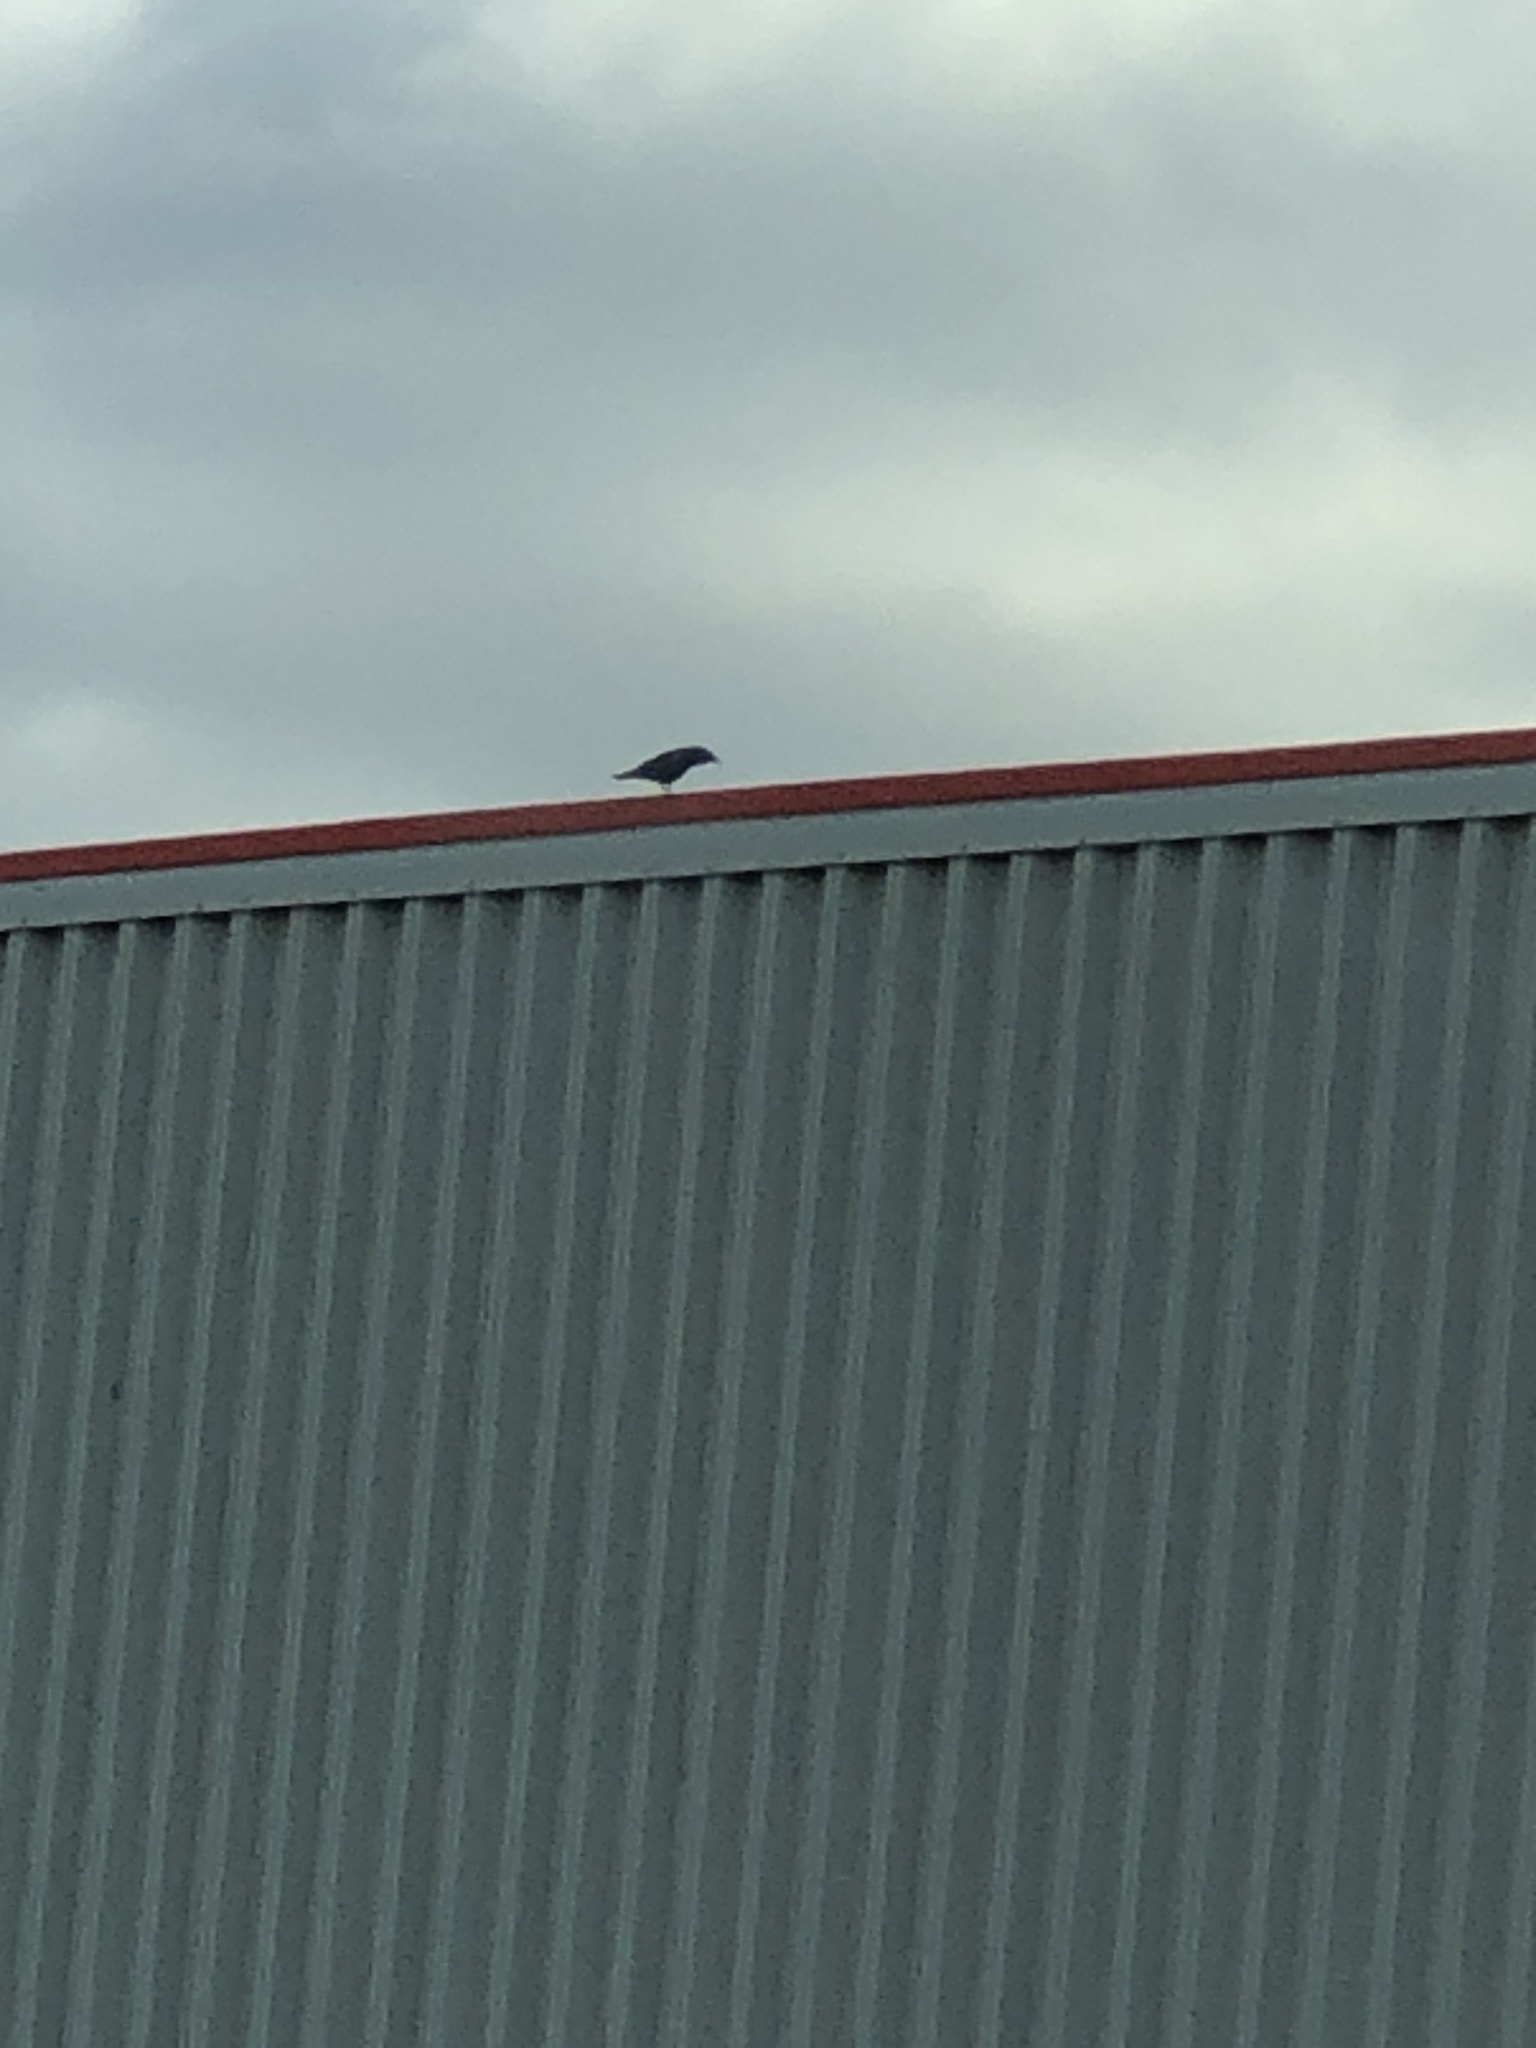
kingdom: Animalia
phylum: Chordata
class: Aves
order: Passeriformes
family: Corvidae
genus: Corvus
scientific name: Corvus brachyrhynchos
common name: American crow
